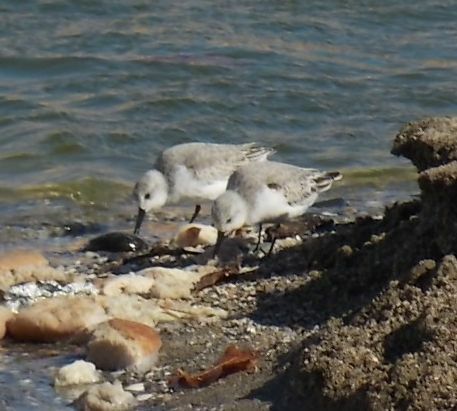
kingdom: Animalia
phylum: Chordata
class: Aves
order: Charadriiformes
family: Scolopacidae
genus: Calidris
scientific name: Calidris alba
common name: Sanderling
